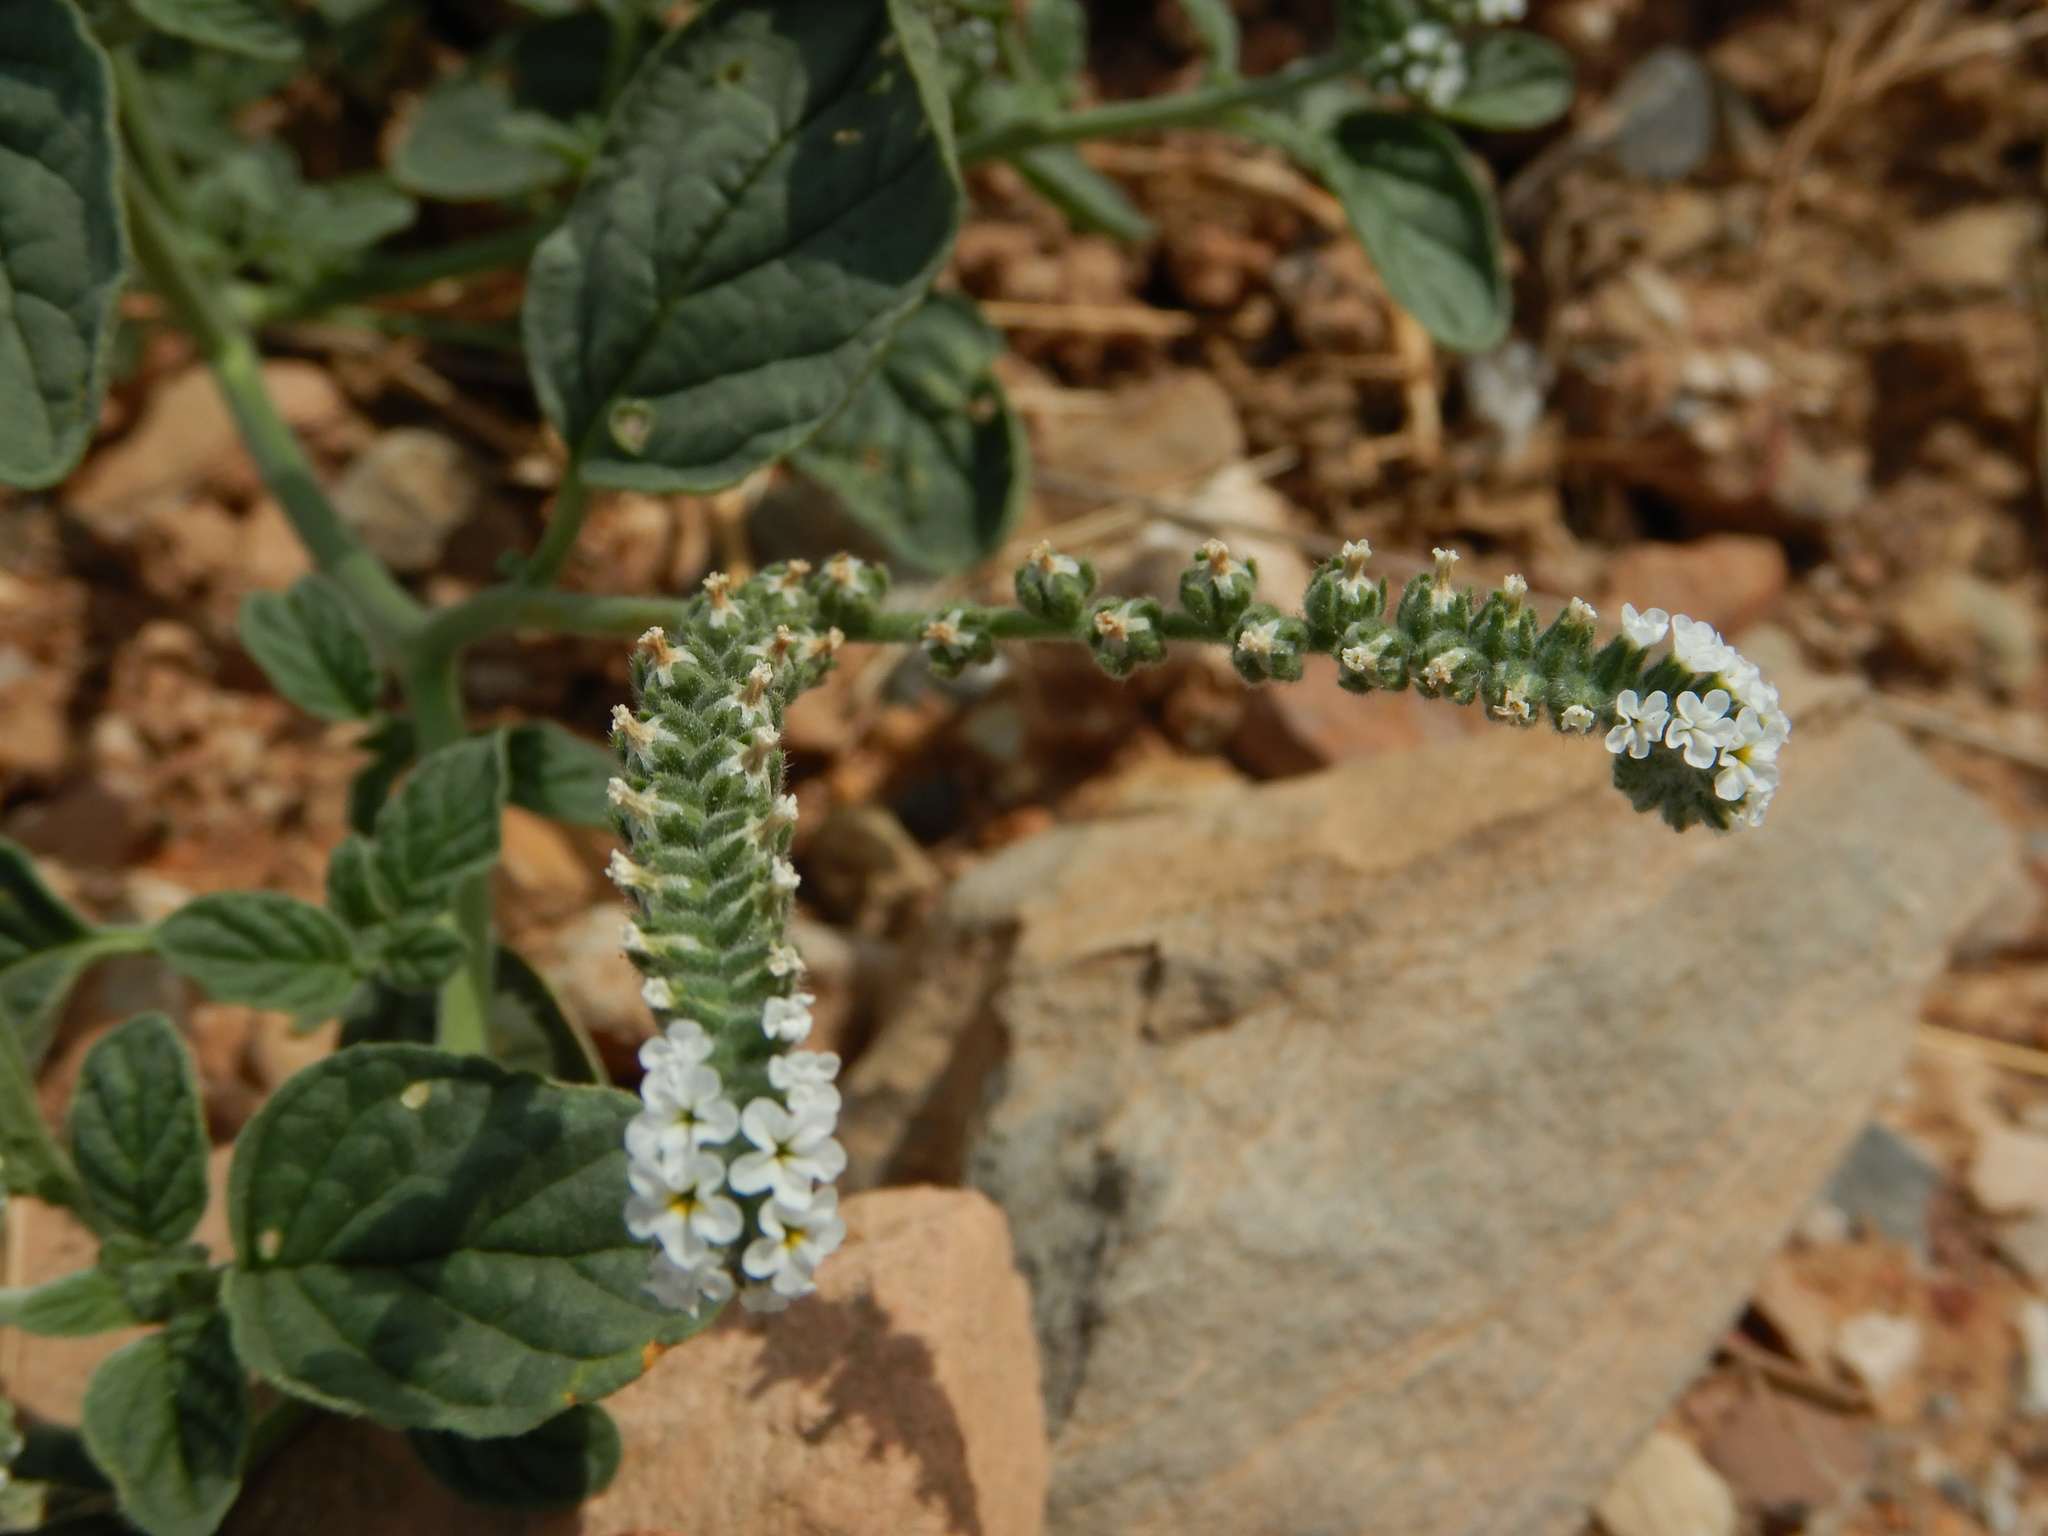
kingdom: Plantae
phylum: Tracheophyta
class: Magnoliopsida
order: Boraginales
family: Heliotropiaceae
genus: Heliotropium
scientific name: Heliotropium europaeum
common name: European heliotrope
